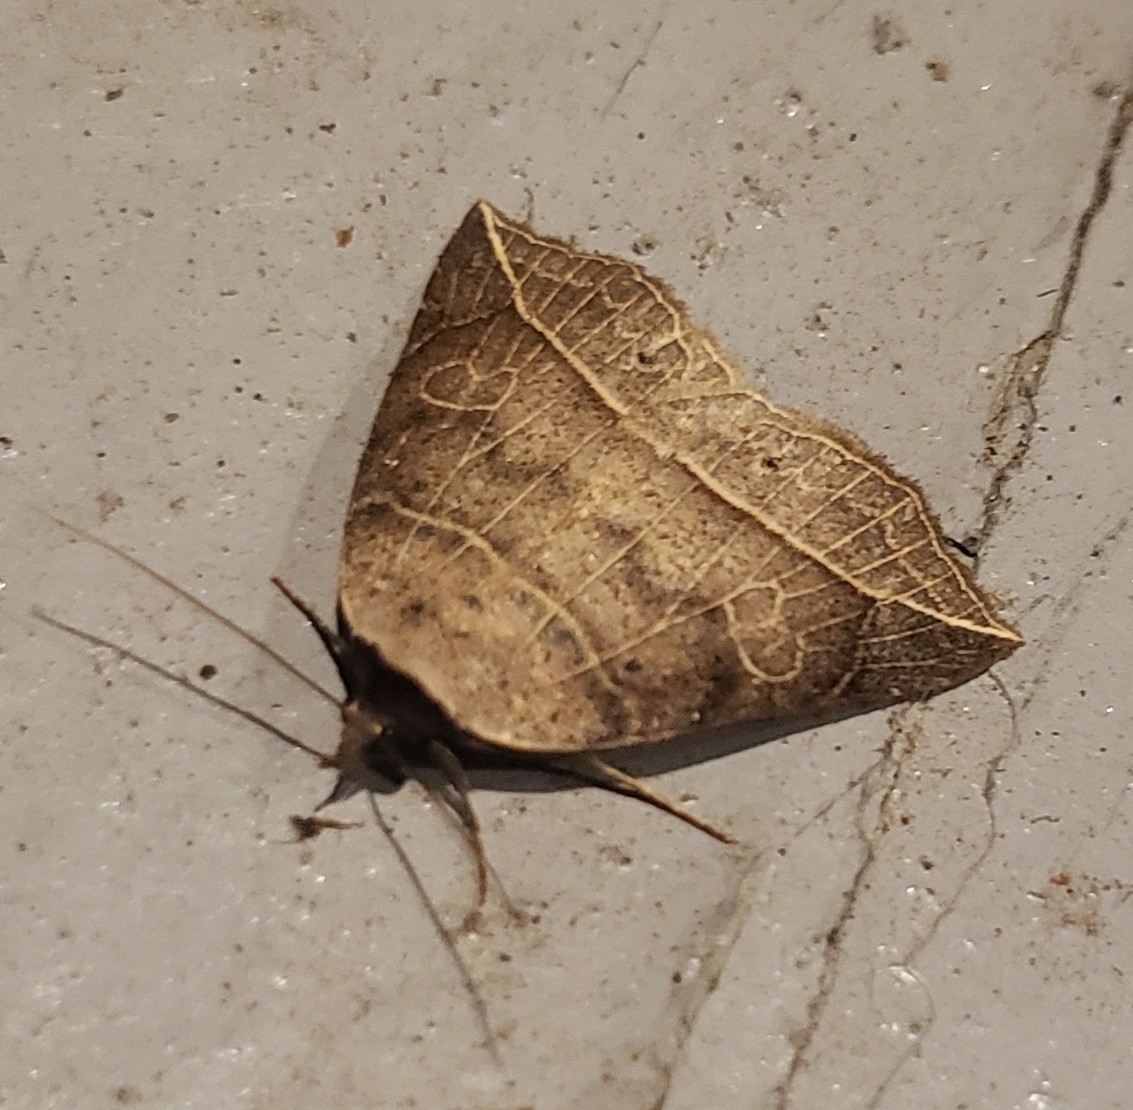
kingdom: Animalia
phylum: Arthropoda
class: Insecta
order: Lepidoptera
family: Erebidae
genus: Isogona
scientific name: Isogona tenuis
